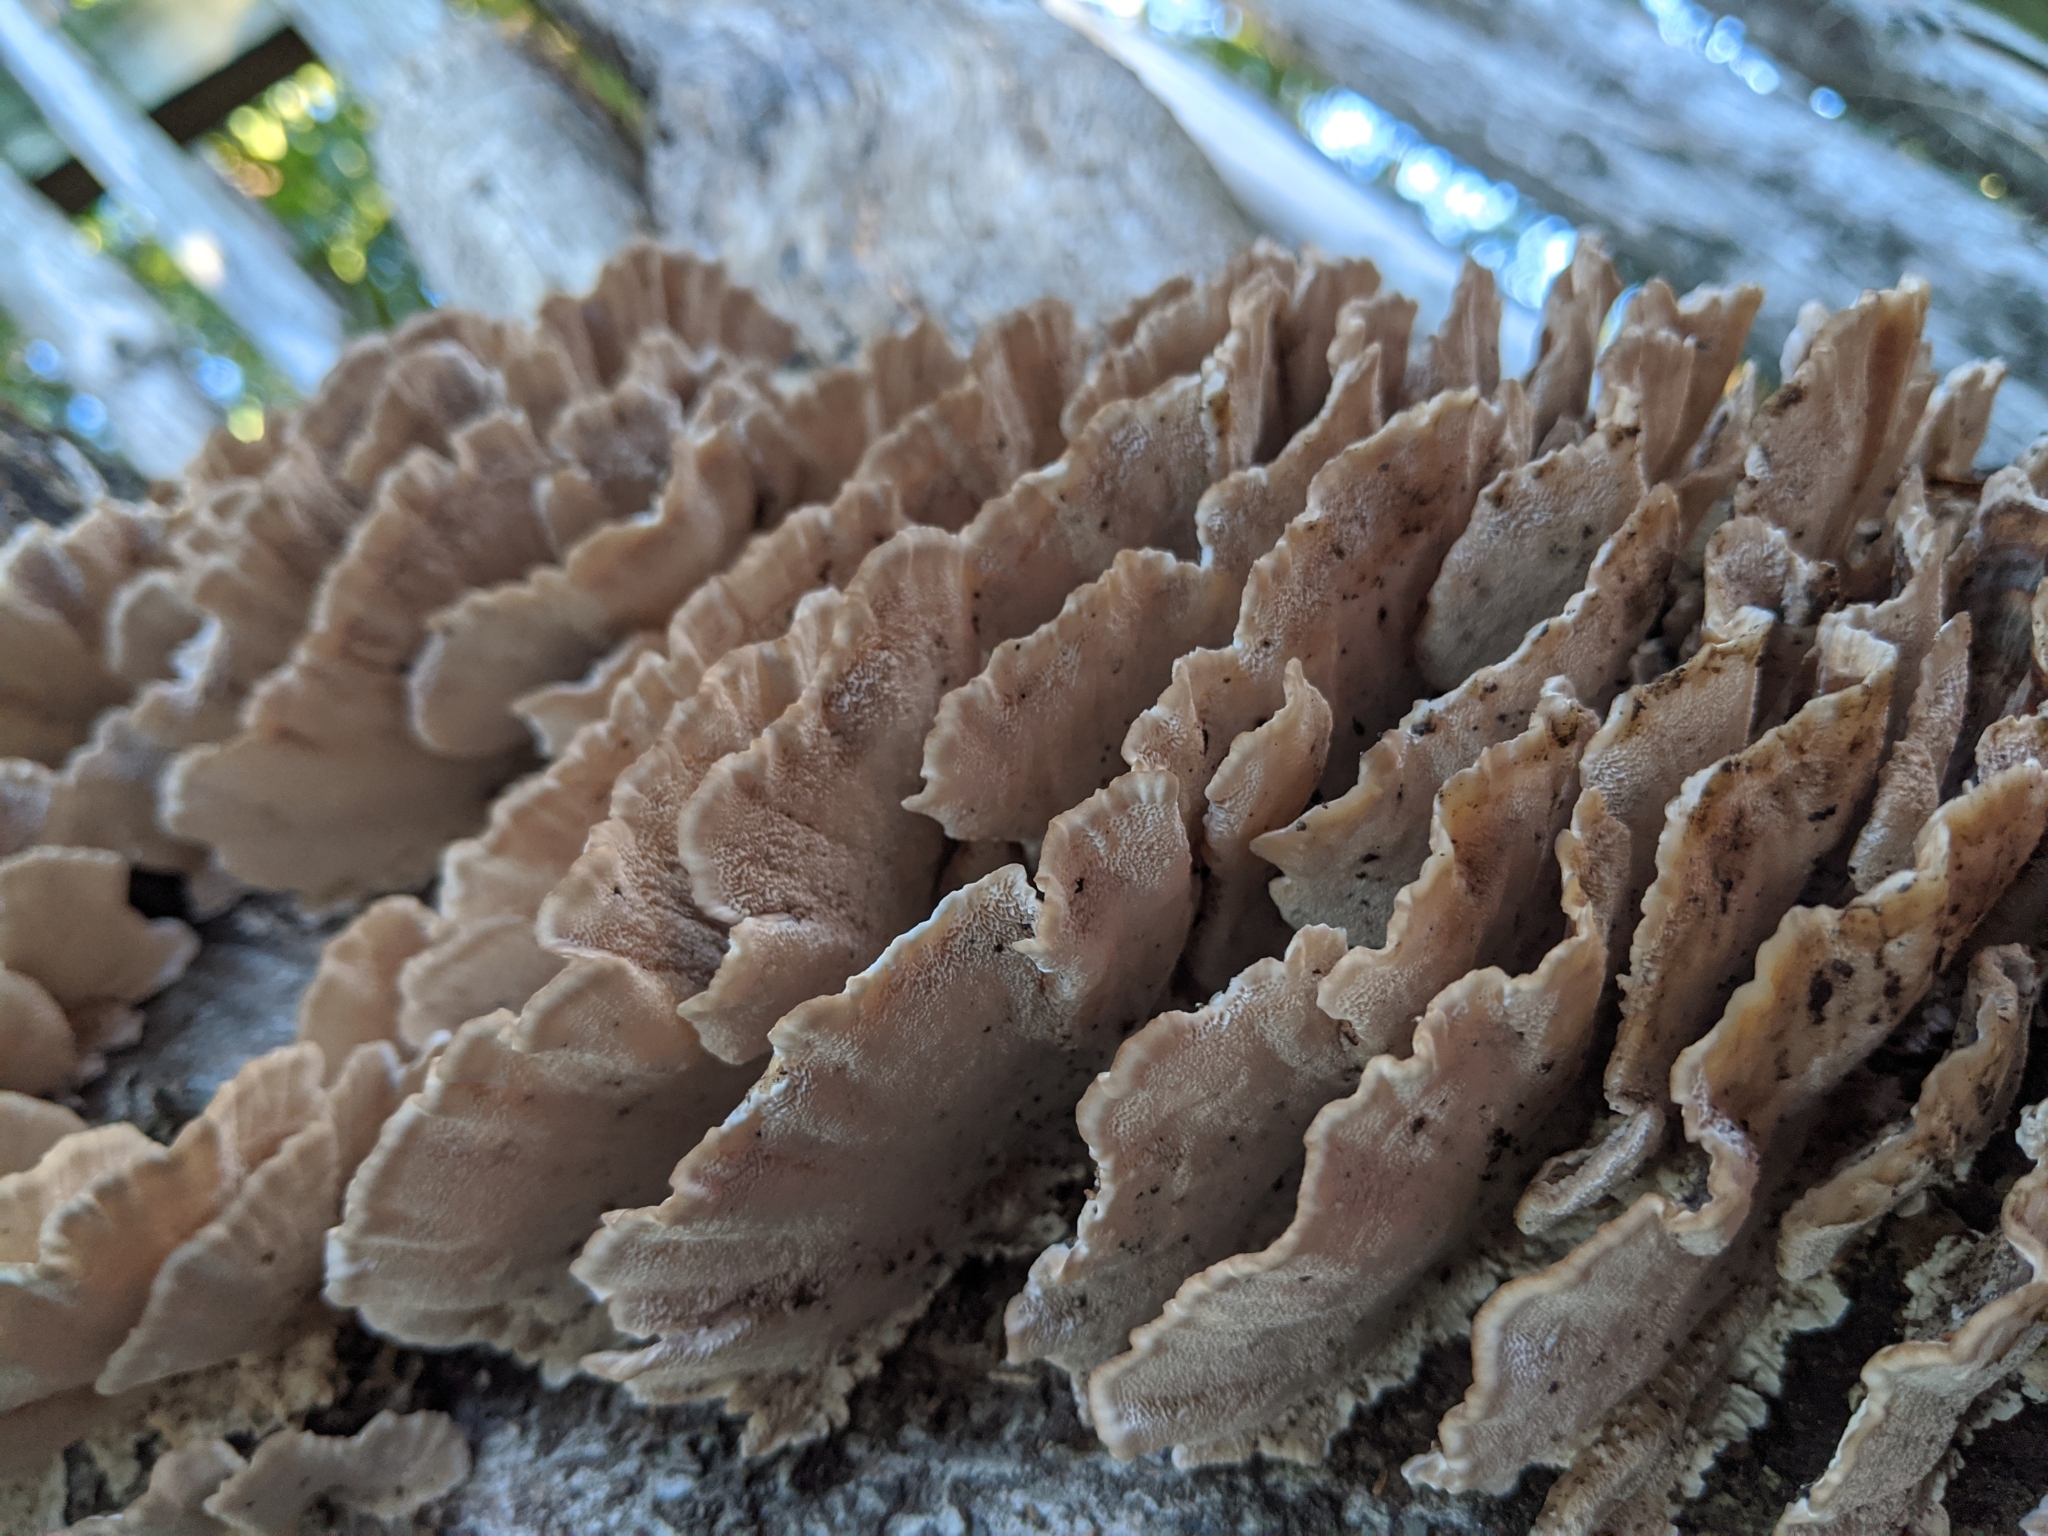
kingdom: Fungi
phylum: Basidiomycota
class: Agaricomycetes
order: Polyporales
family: Polyporaceae
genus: Trametes
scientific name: Trametes versicolor
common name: Turkeytail
